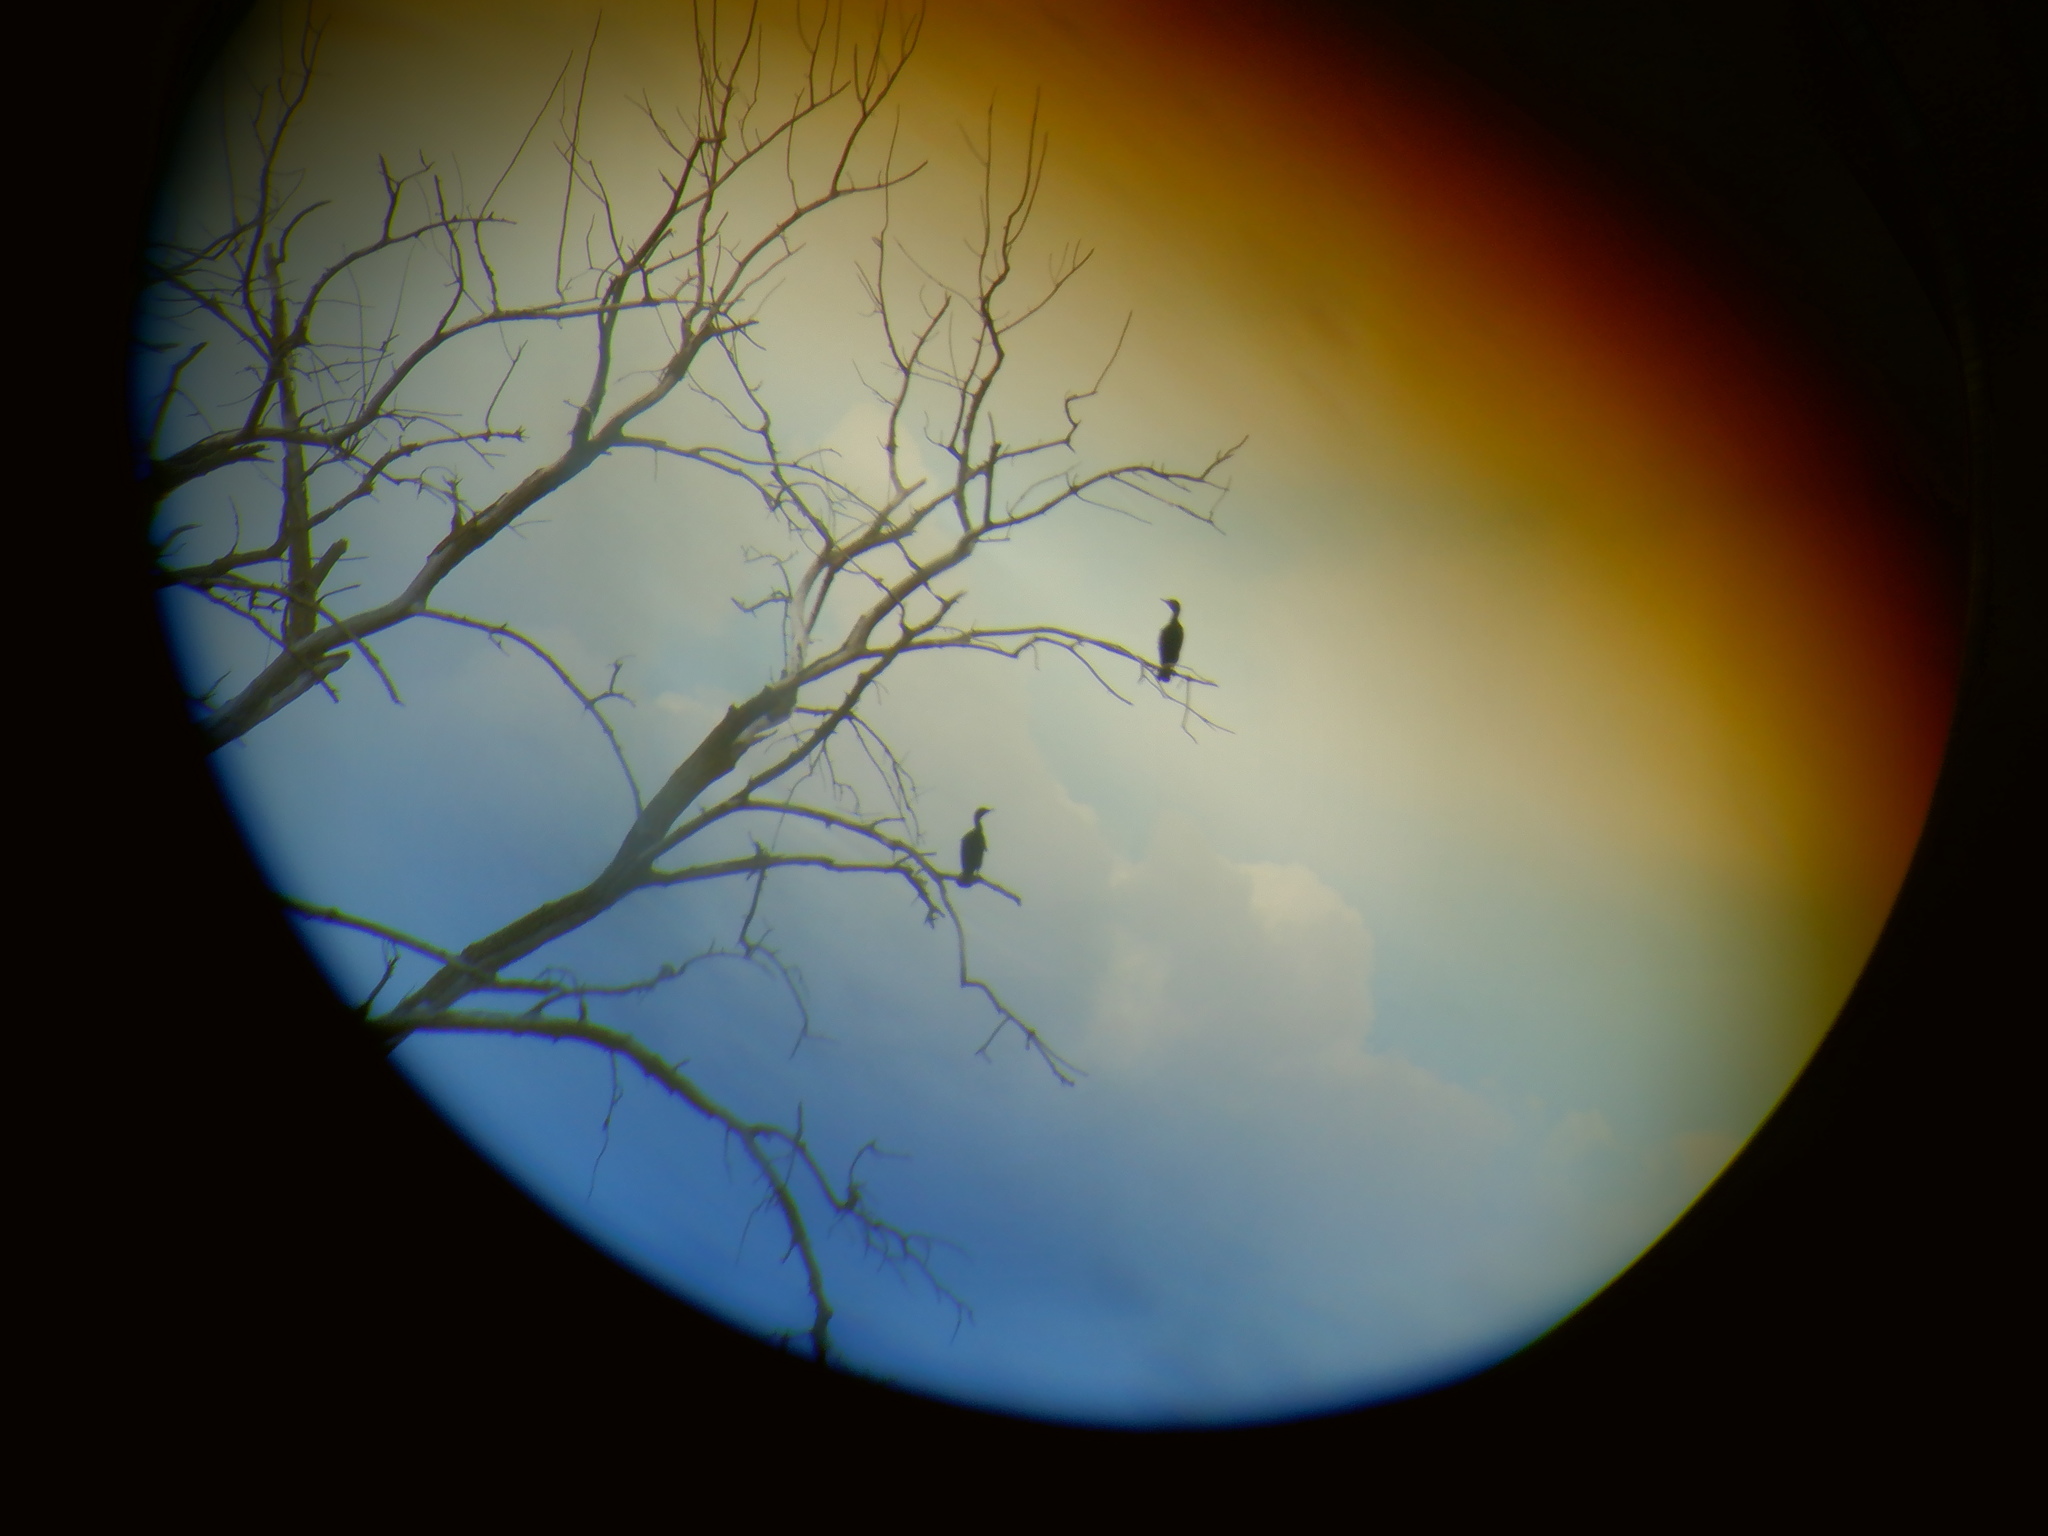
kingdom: Animalia
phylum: Chordata
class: Aves
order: Suliformes
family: Phalacrocoracidae
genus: Phalacrocorax
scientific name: Phalacrocorax auritus
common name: Double-crested cormorant
